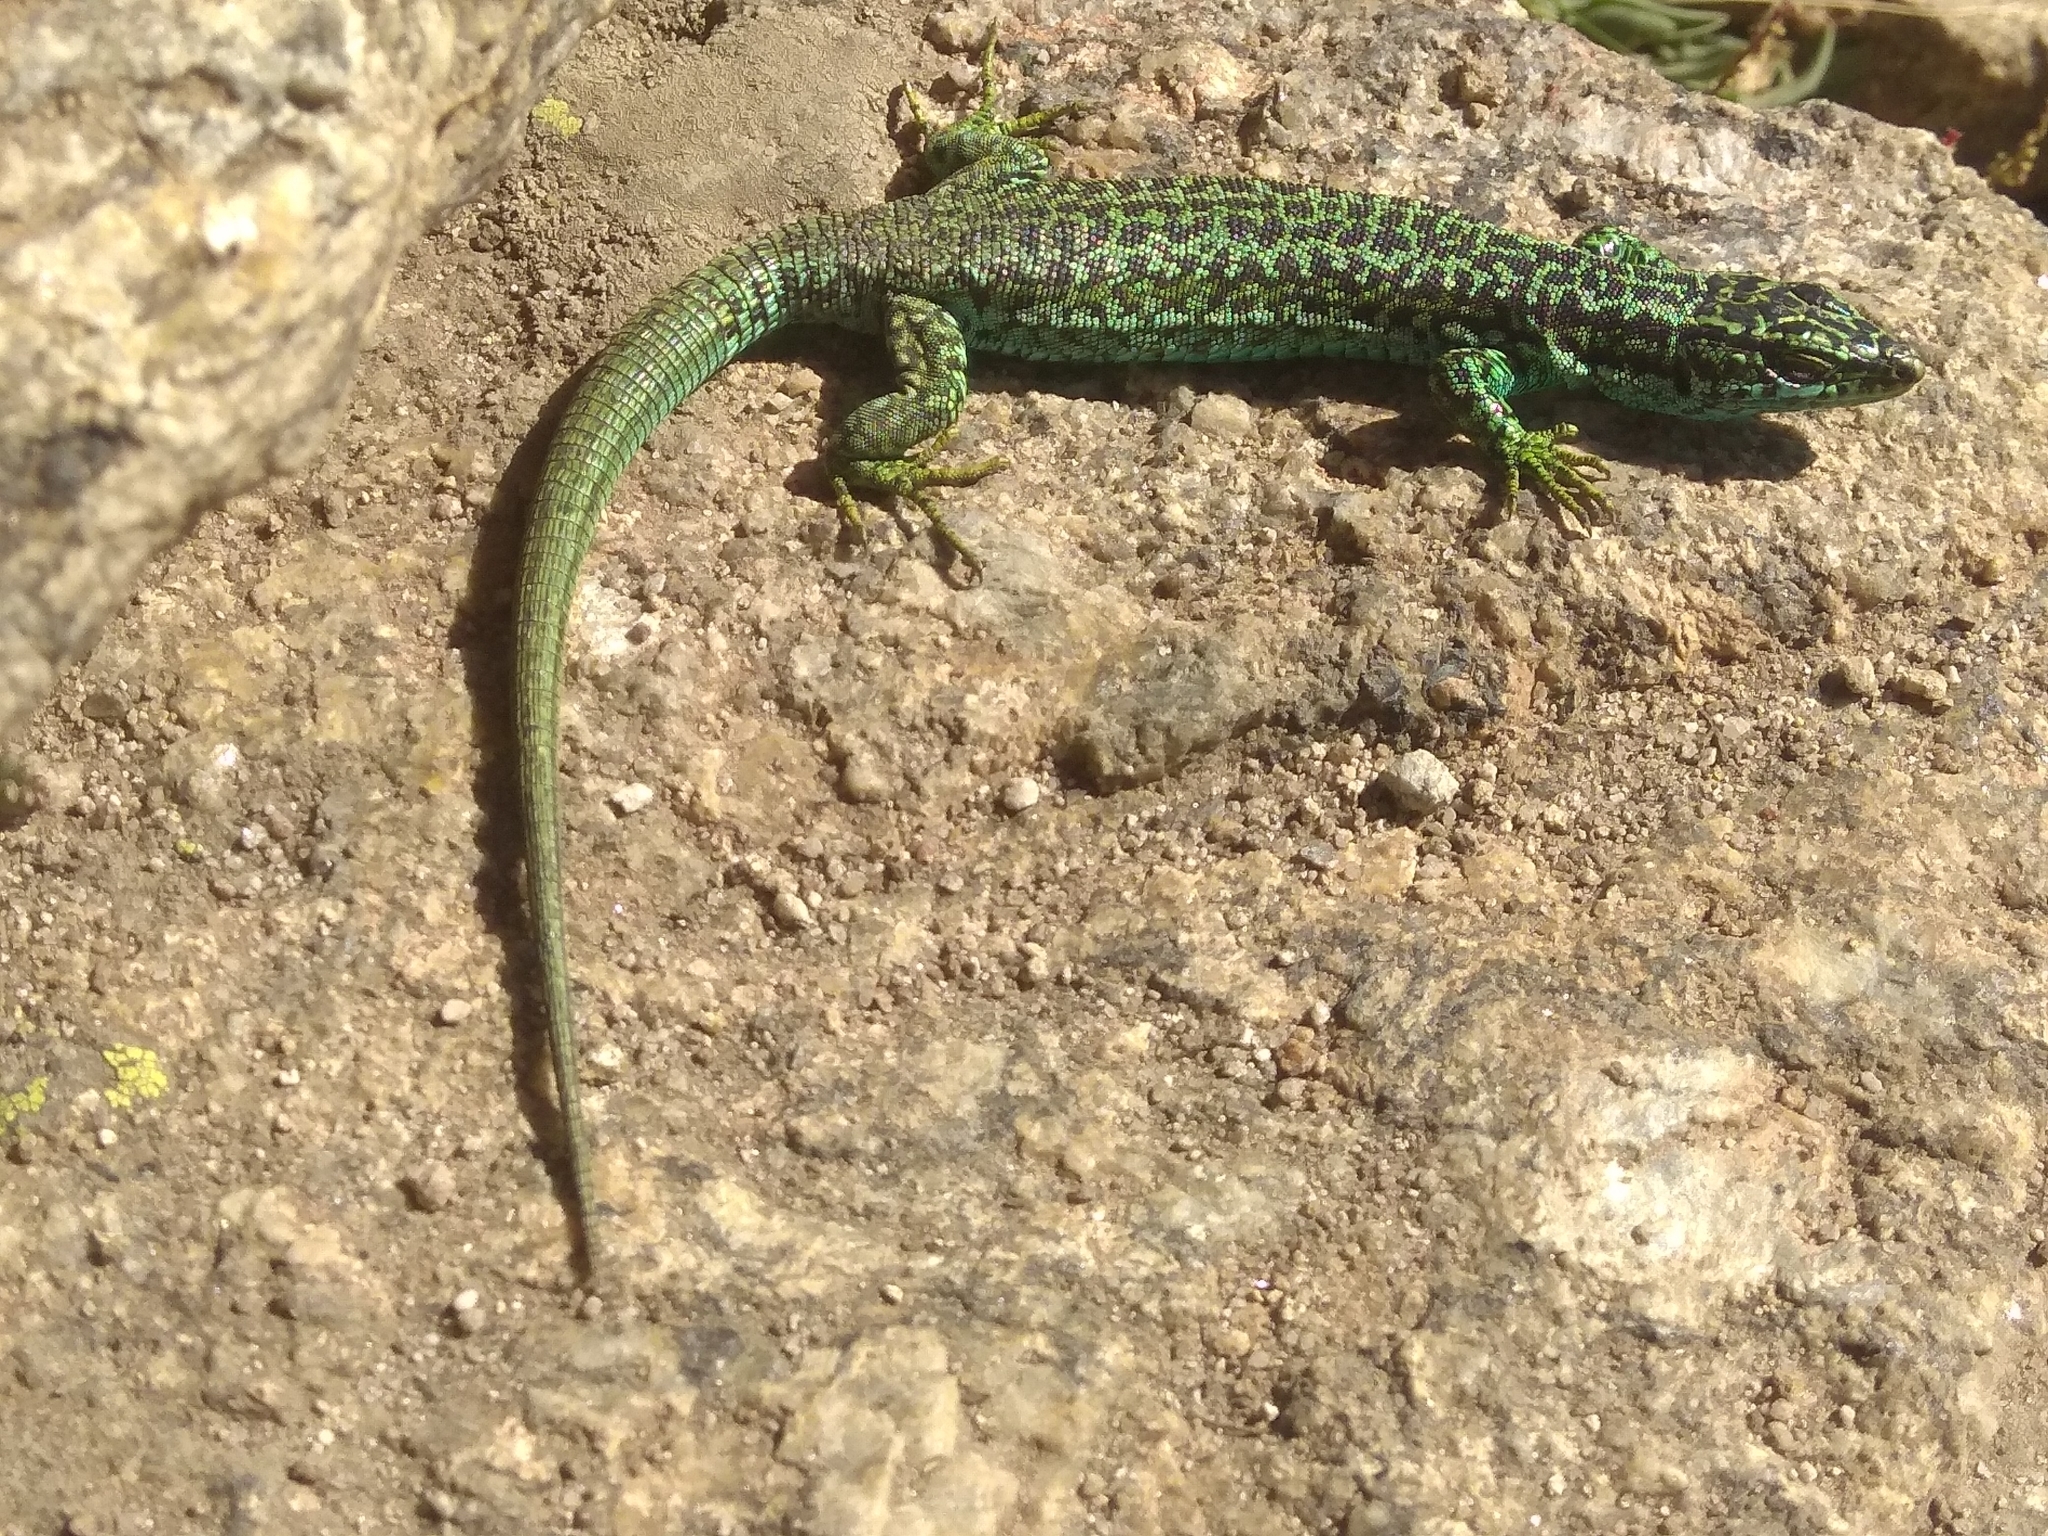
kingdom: Animalia
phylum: Chordata
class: Squamata
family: Lacertidae
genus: Iberolacerta
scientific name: Iberolacerta cyreni
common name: Cyren’s rock lizard
